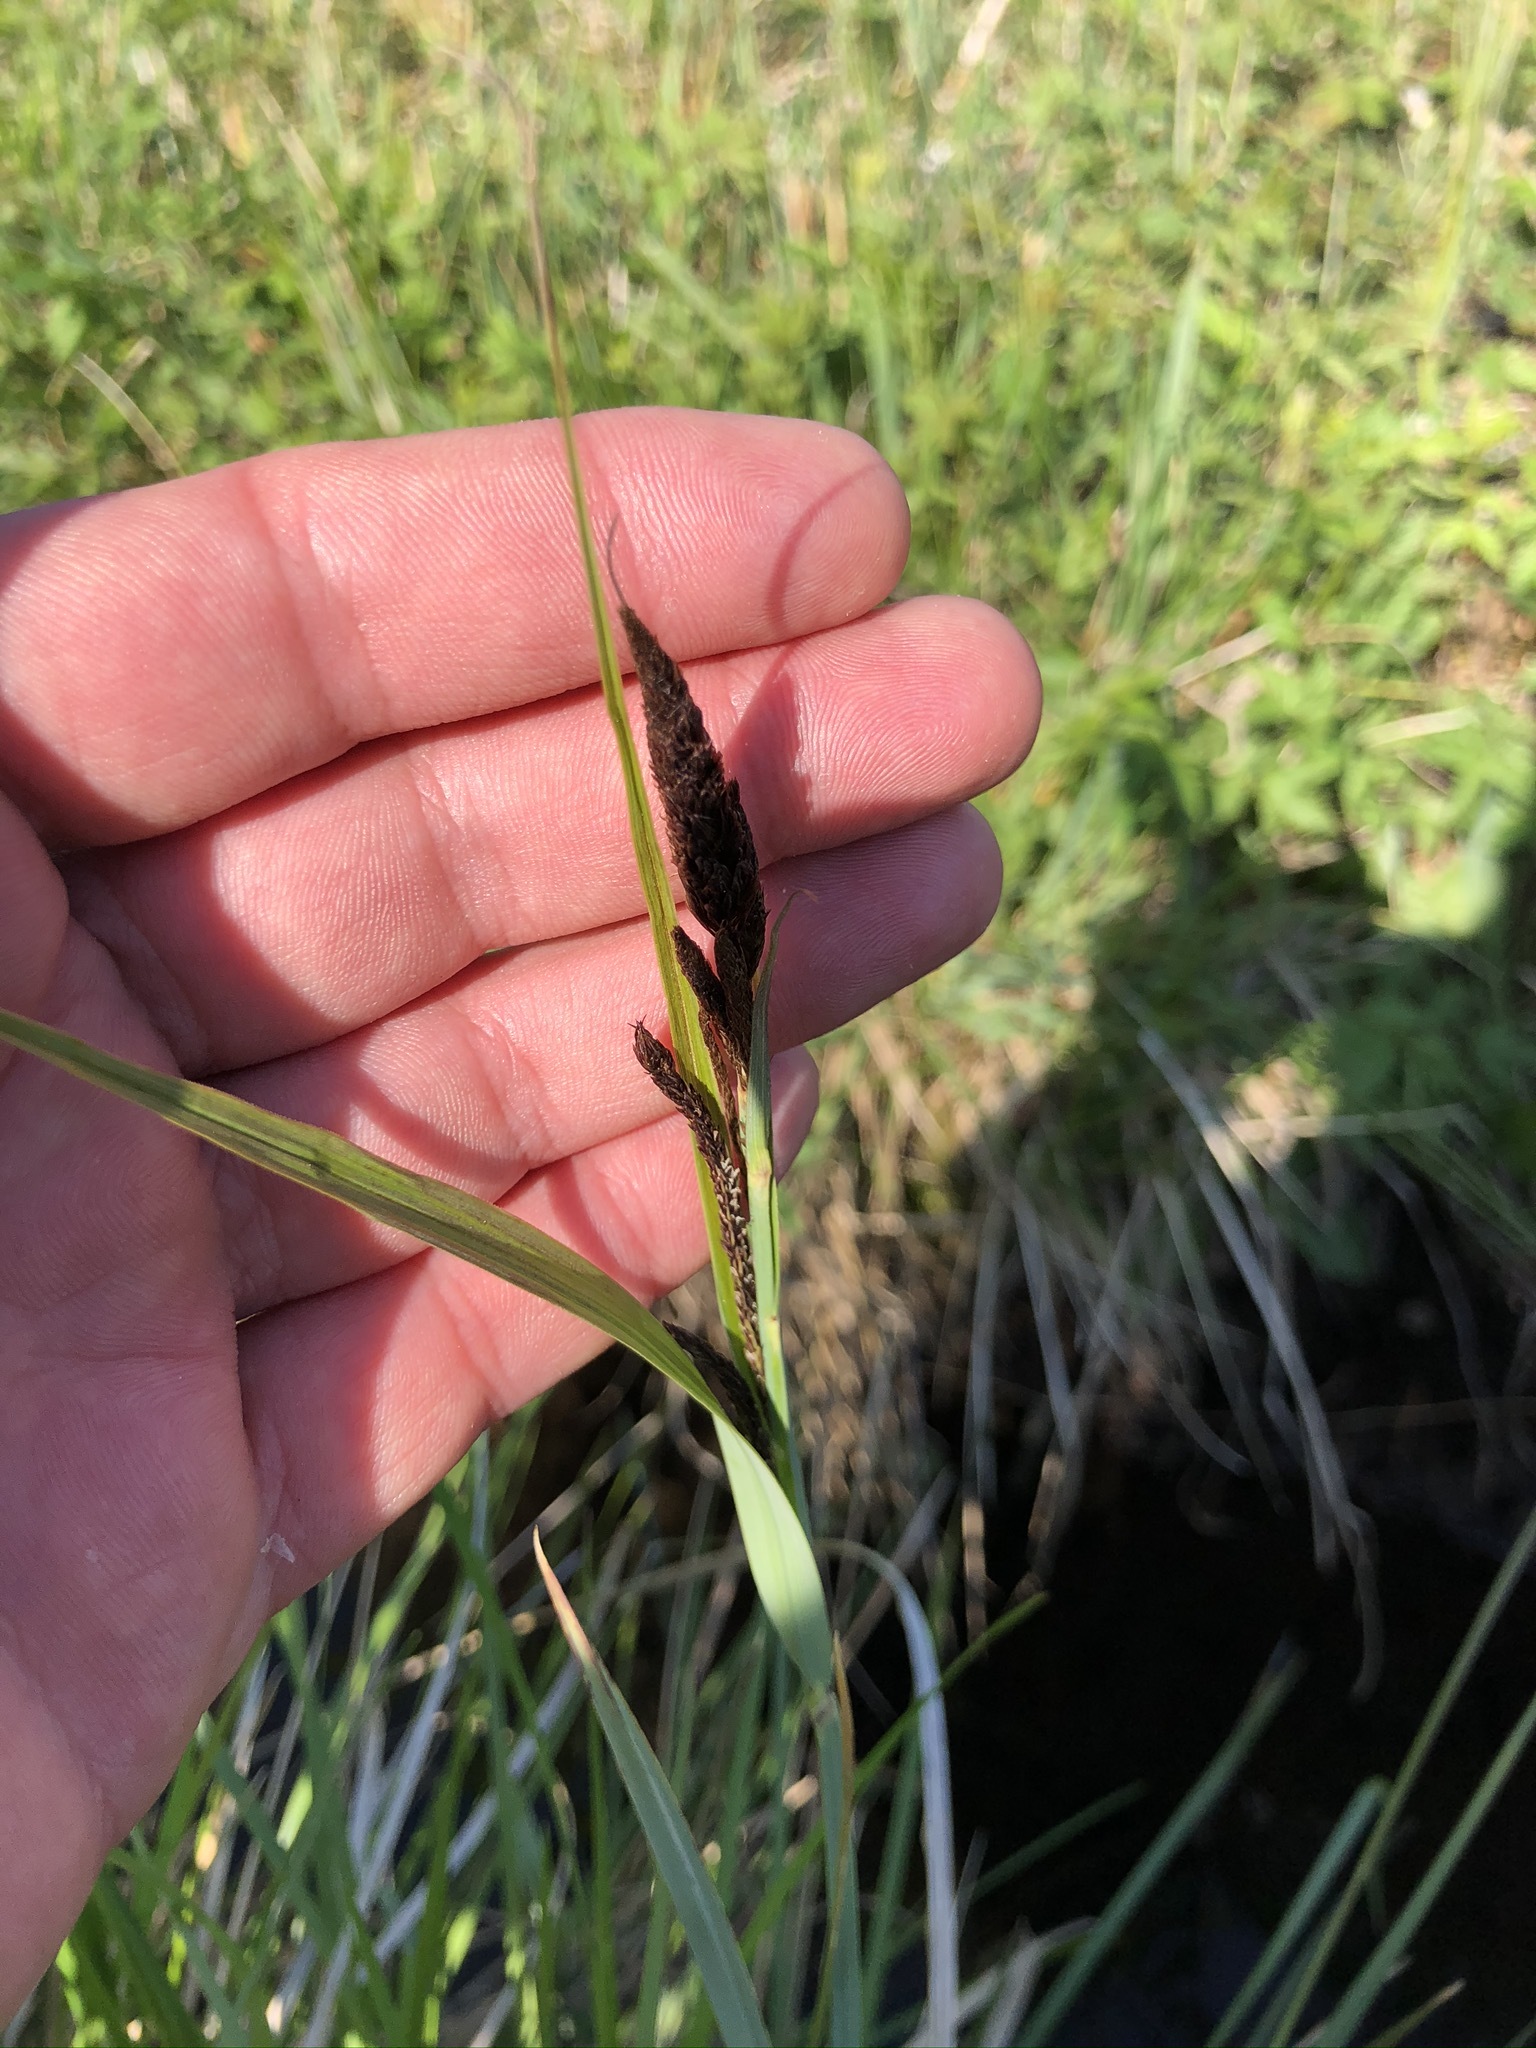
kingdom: Plantae
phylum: Tracheophyta
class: Liliopsida
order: Poales
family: Cyperaceae
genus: Carex
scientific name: Carex acuta
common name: Slender tufted-sedge
